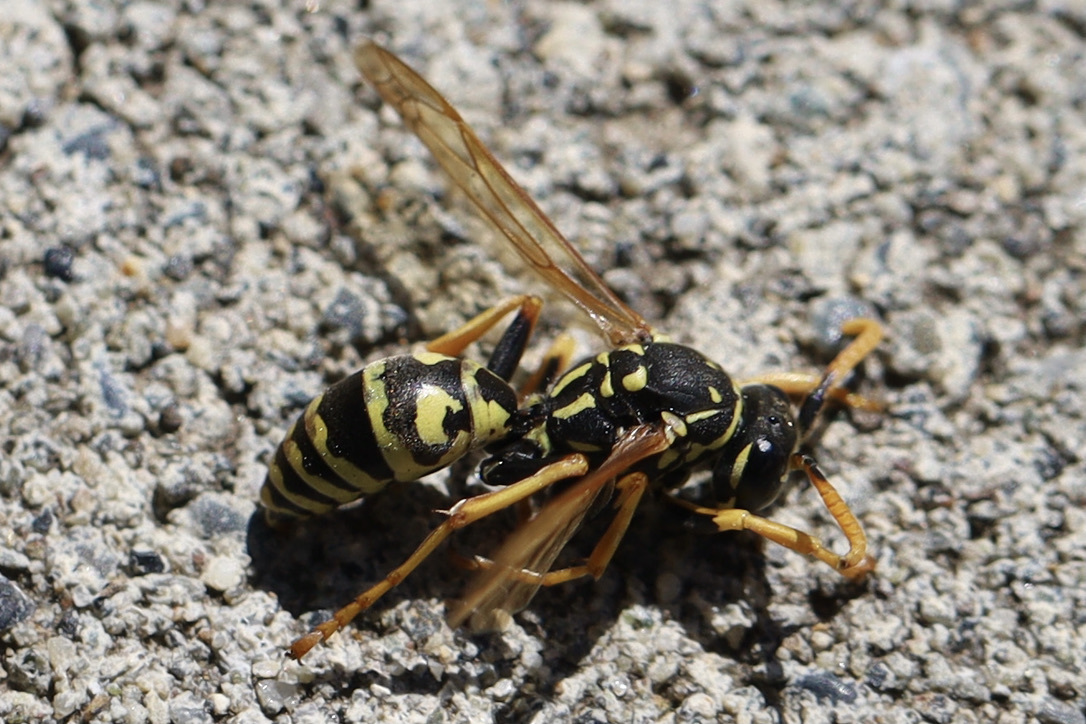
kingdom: Animalia
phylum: Arthropoda
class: Insecta
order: Hymenoptera
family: Eumenidae
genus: Polistes
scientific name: Polistes dominula
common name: Paper wasp
